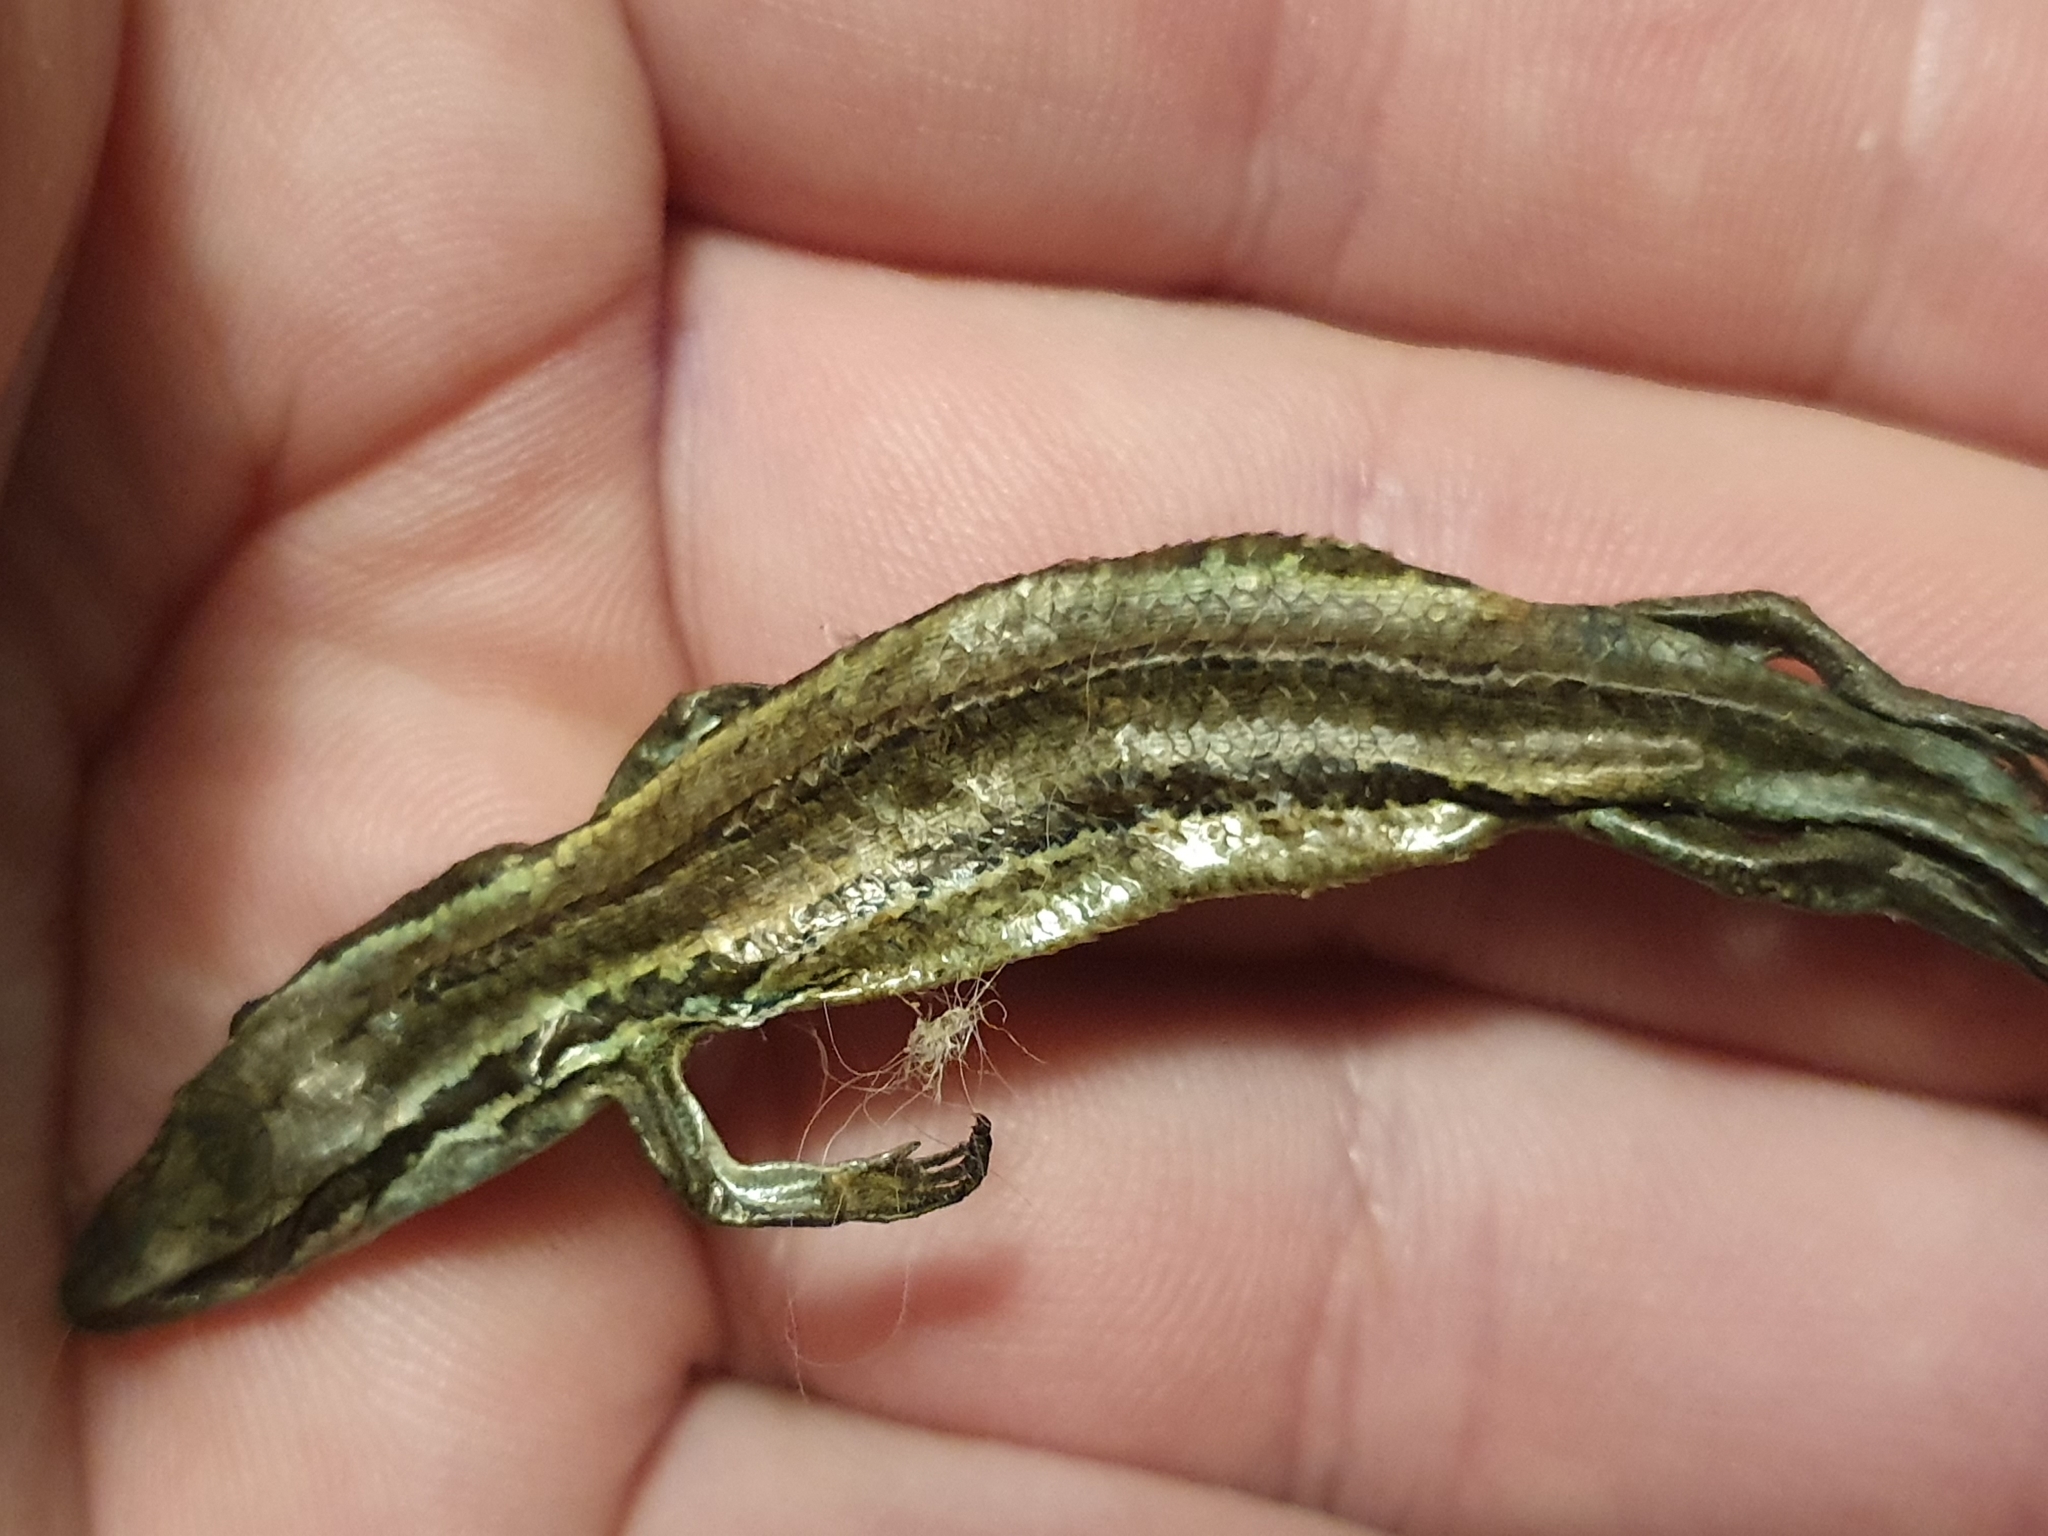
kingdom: Animalia
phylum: Chordata
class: Squamata
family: Scincidae
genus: Oligosoma
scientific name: Oligosoma polychroma
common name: Common new zealand skink
